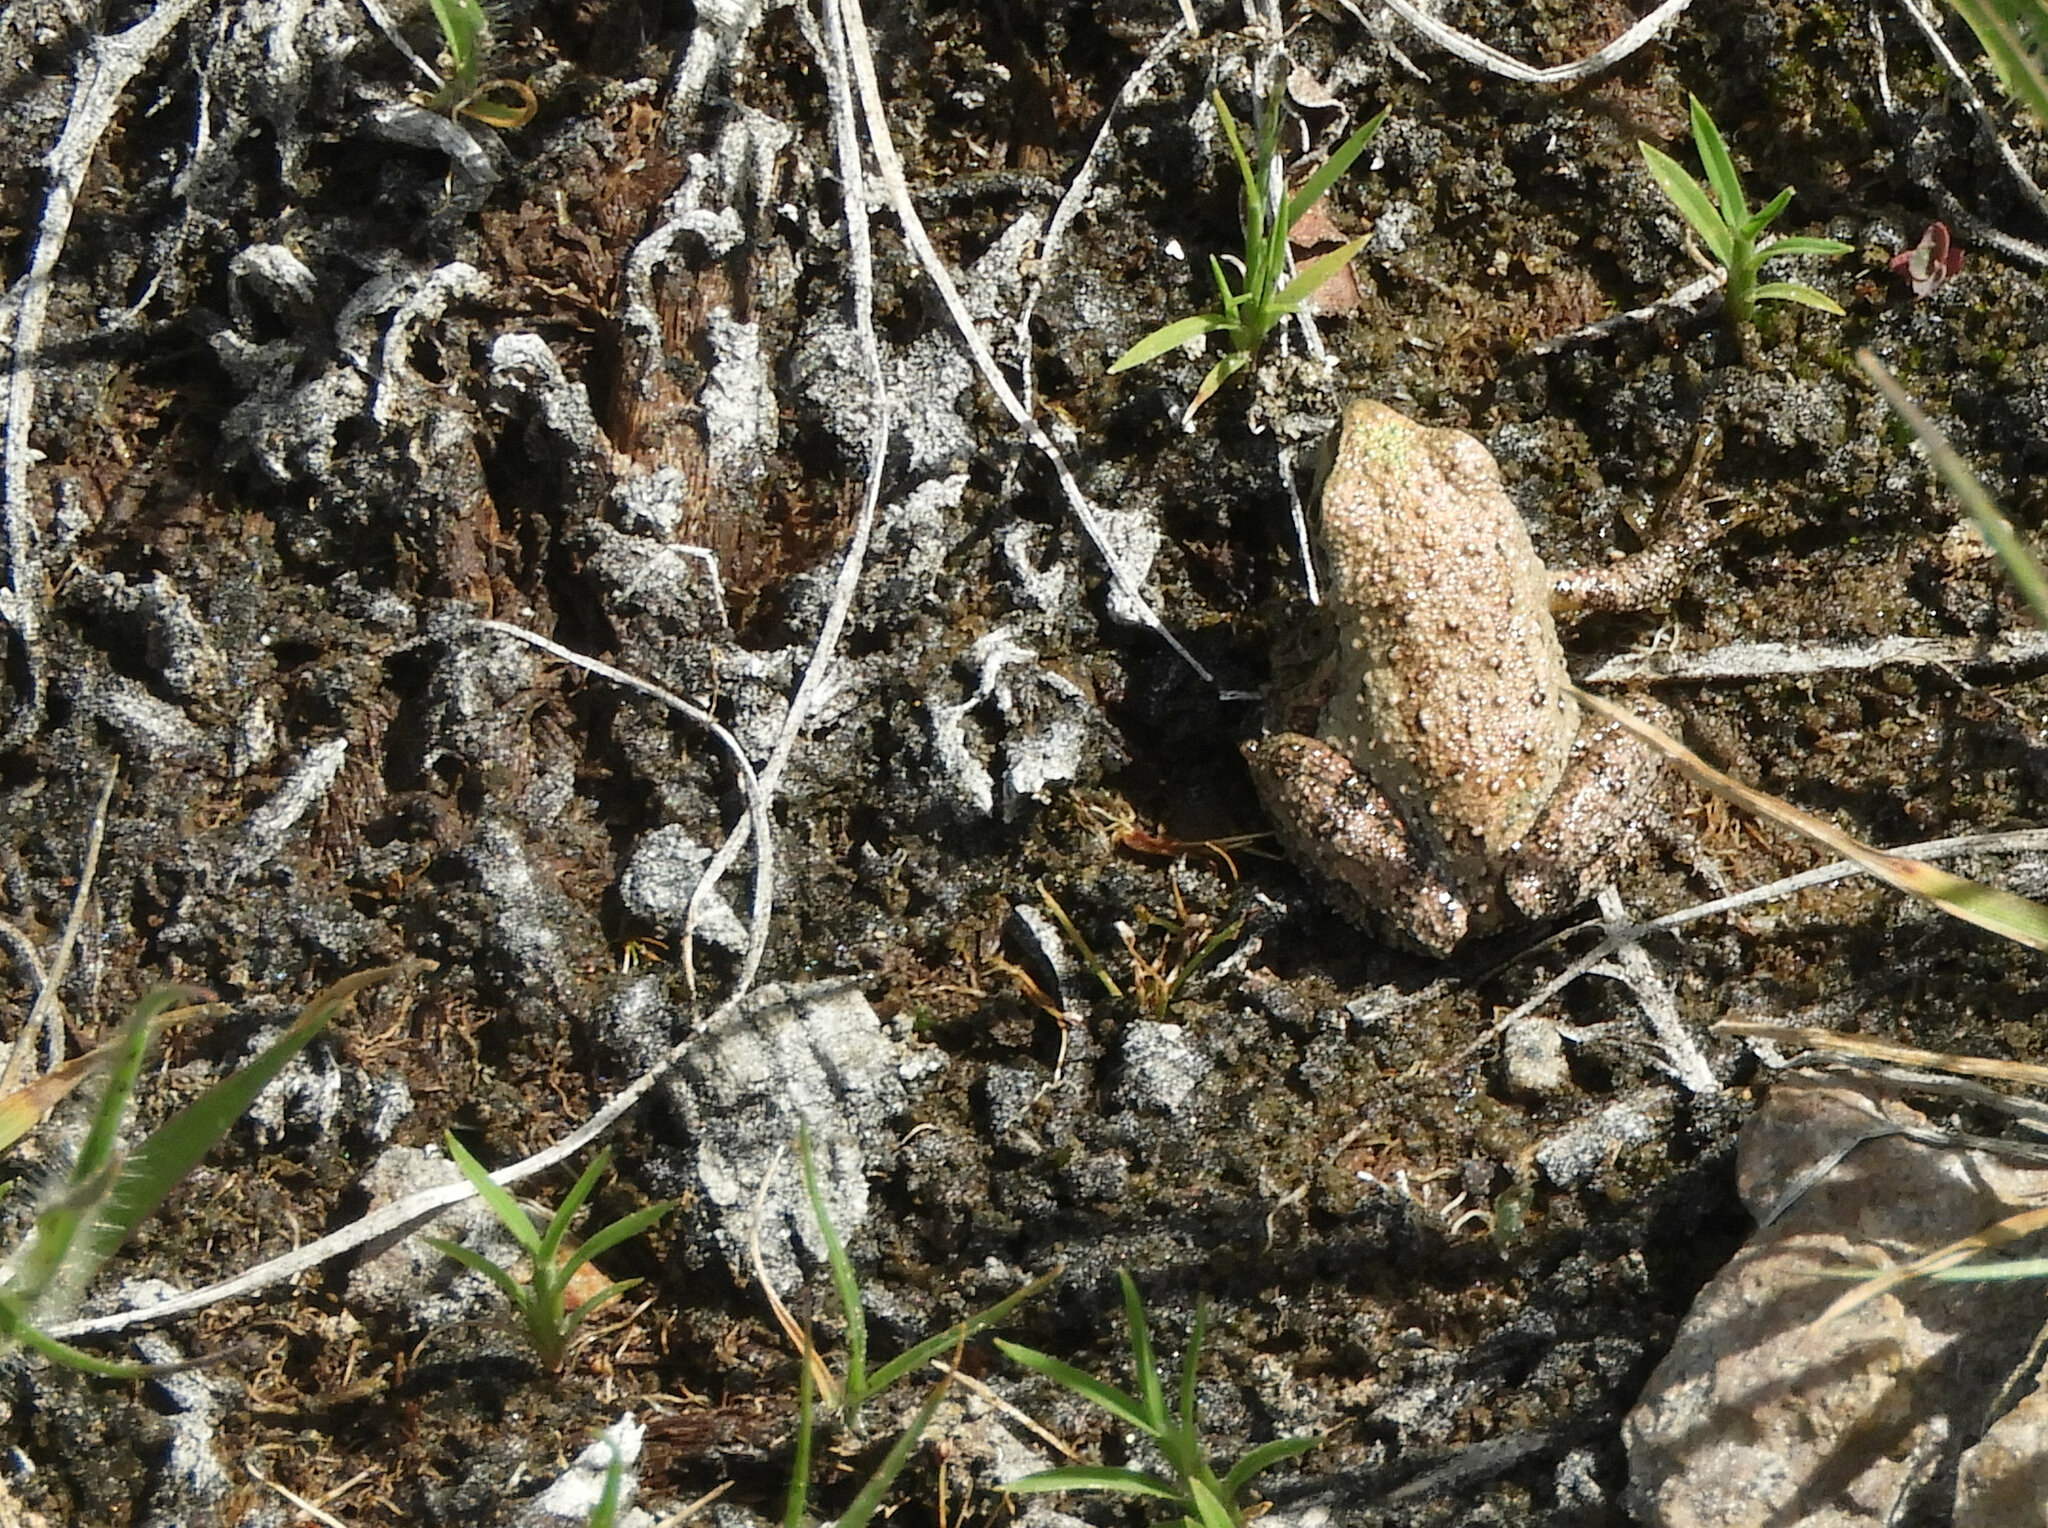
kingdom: Animalia
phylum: Chordata
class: Amphibia
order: Anura
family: Hylidae
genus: Pseudacris
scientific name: Pseudacris regilla
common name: Pacific chorus frog
